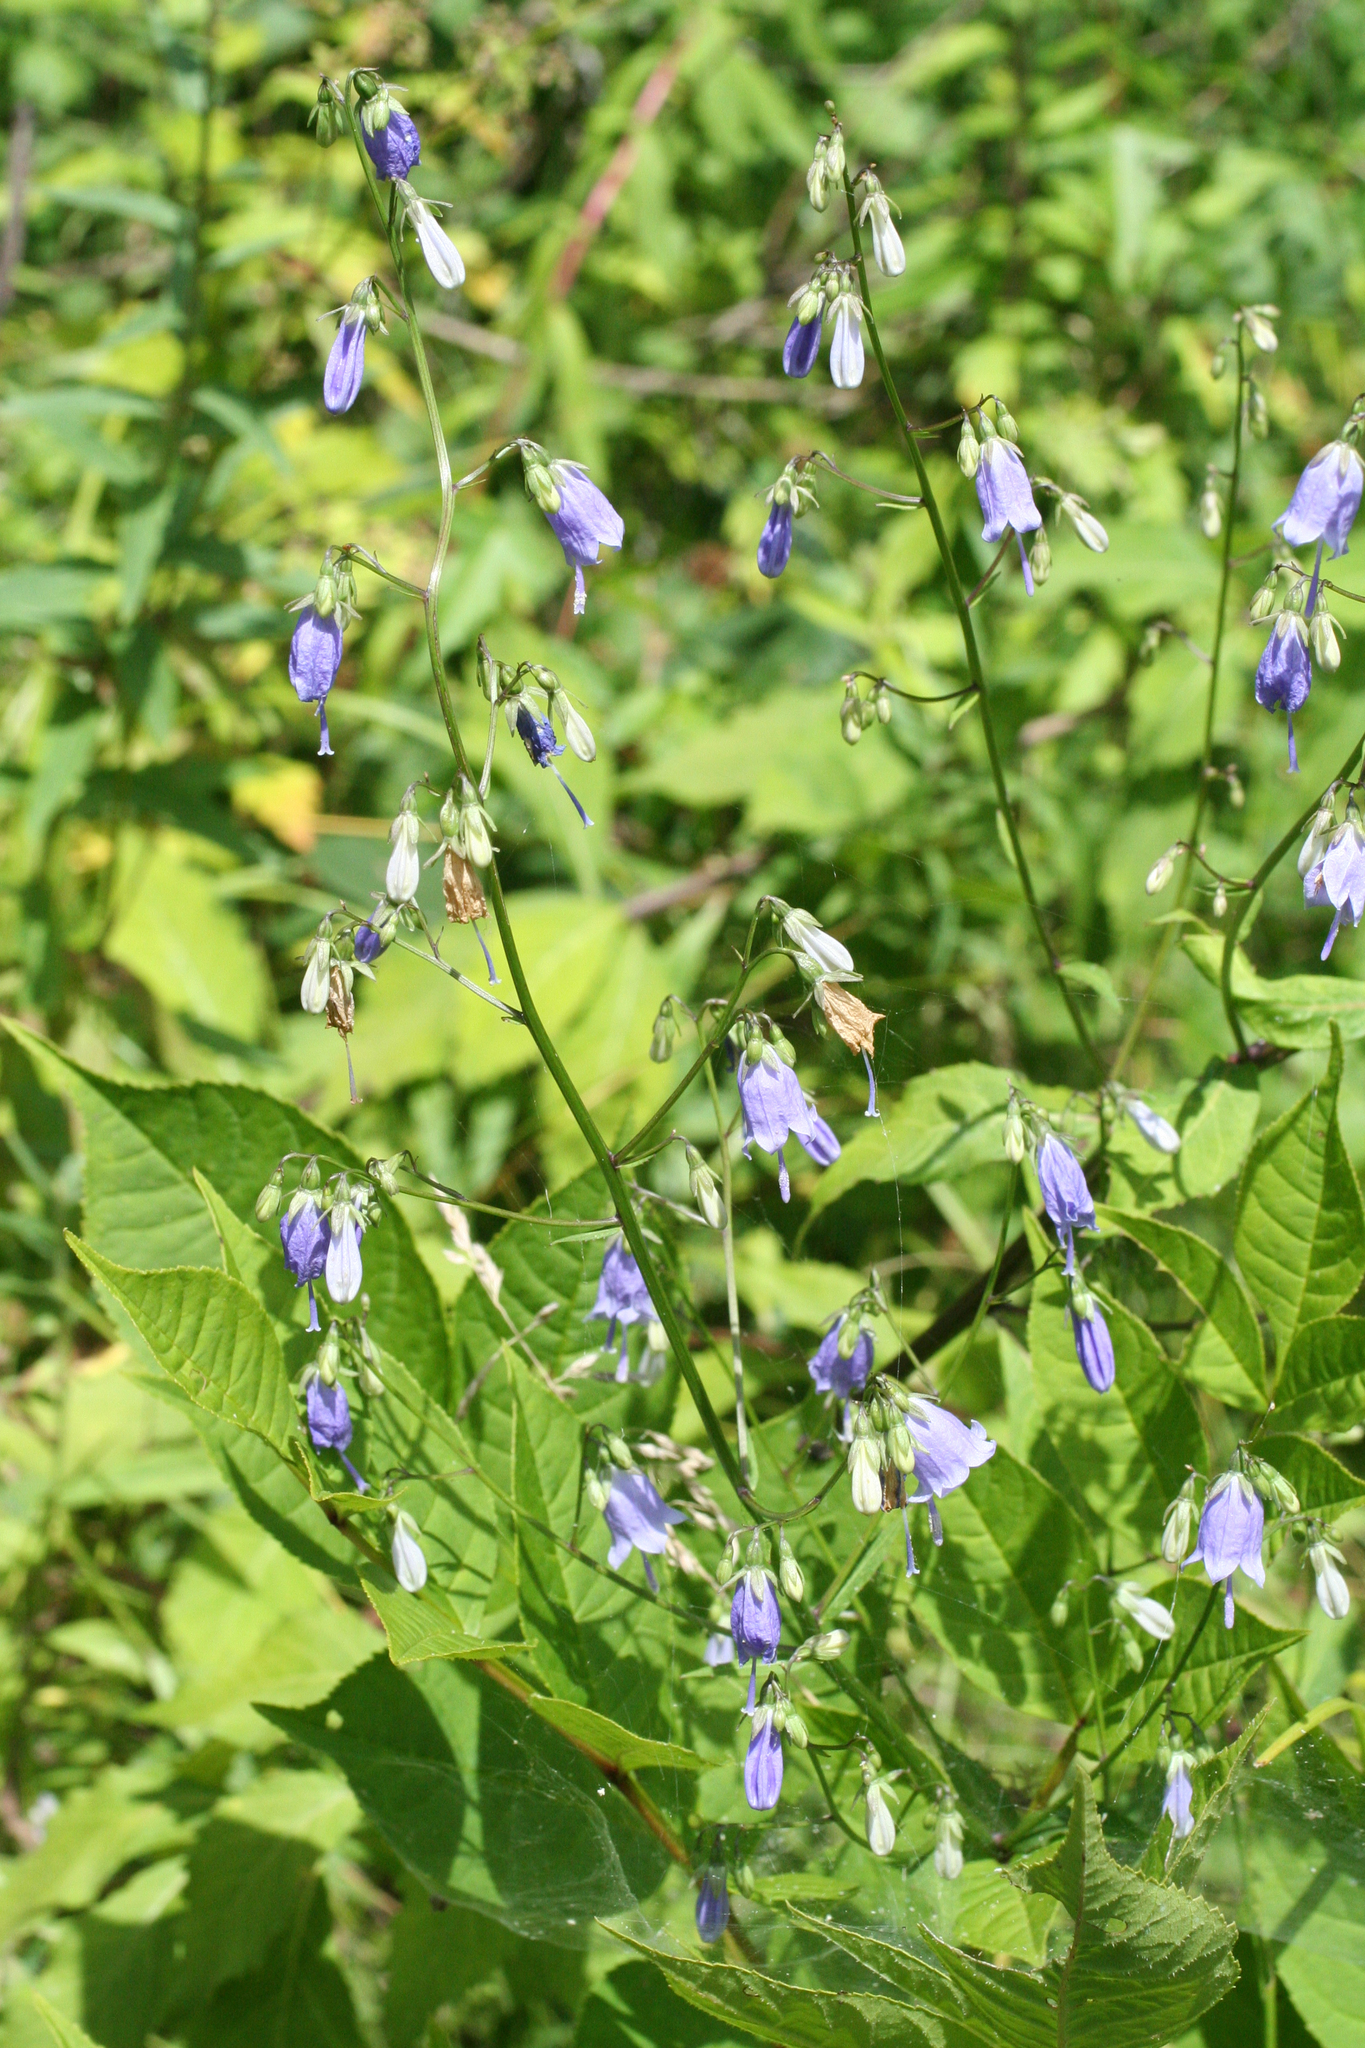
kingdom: Plantae
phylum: Tracheophyta
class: Magnoliopsida
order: Asterales
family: Campanulaceae
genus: Adenophora
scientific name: Adenophora pereskiifolia
